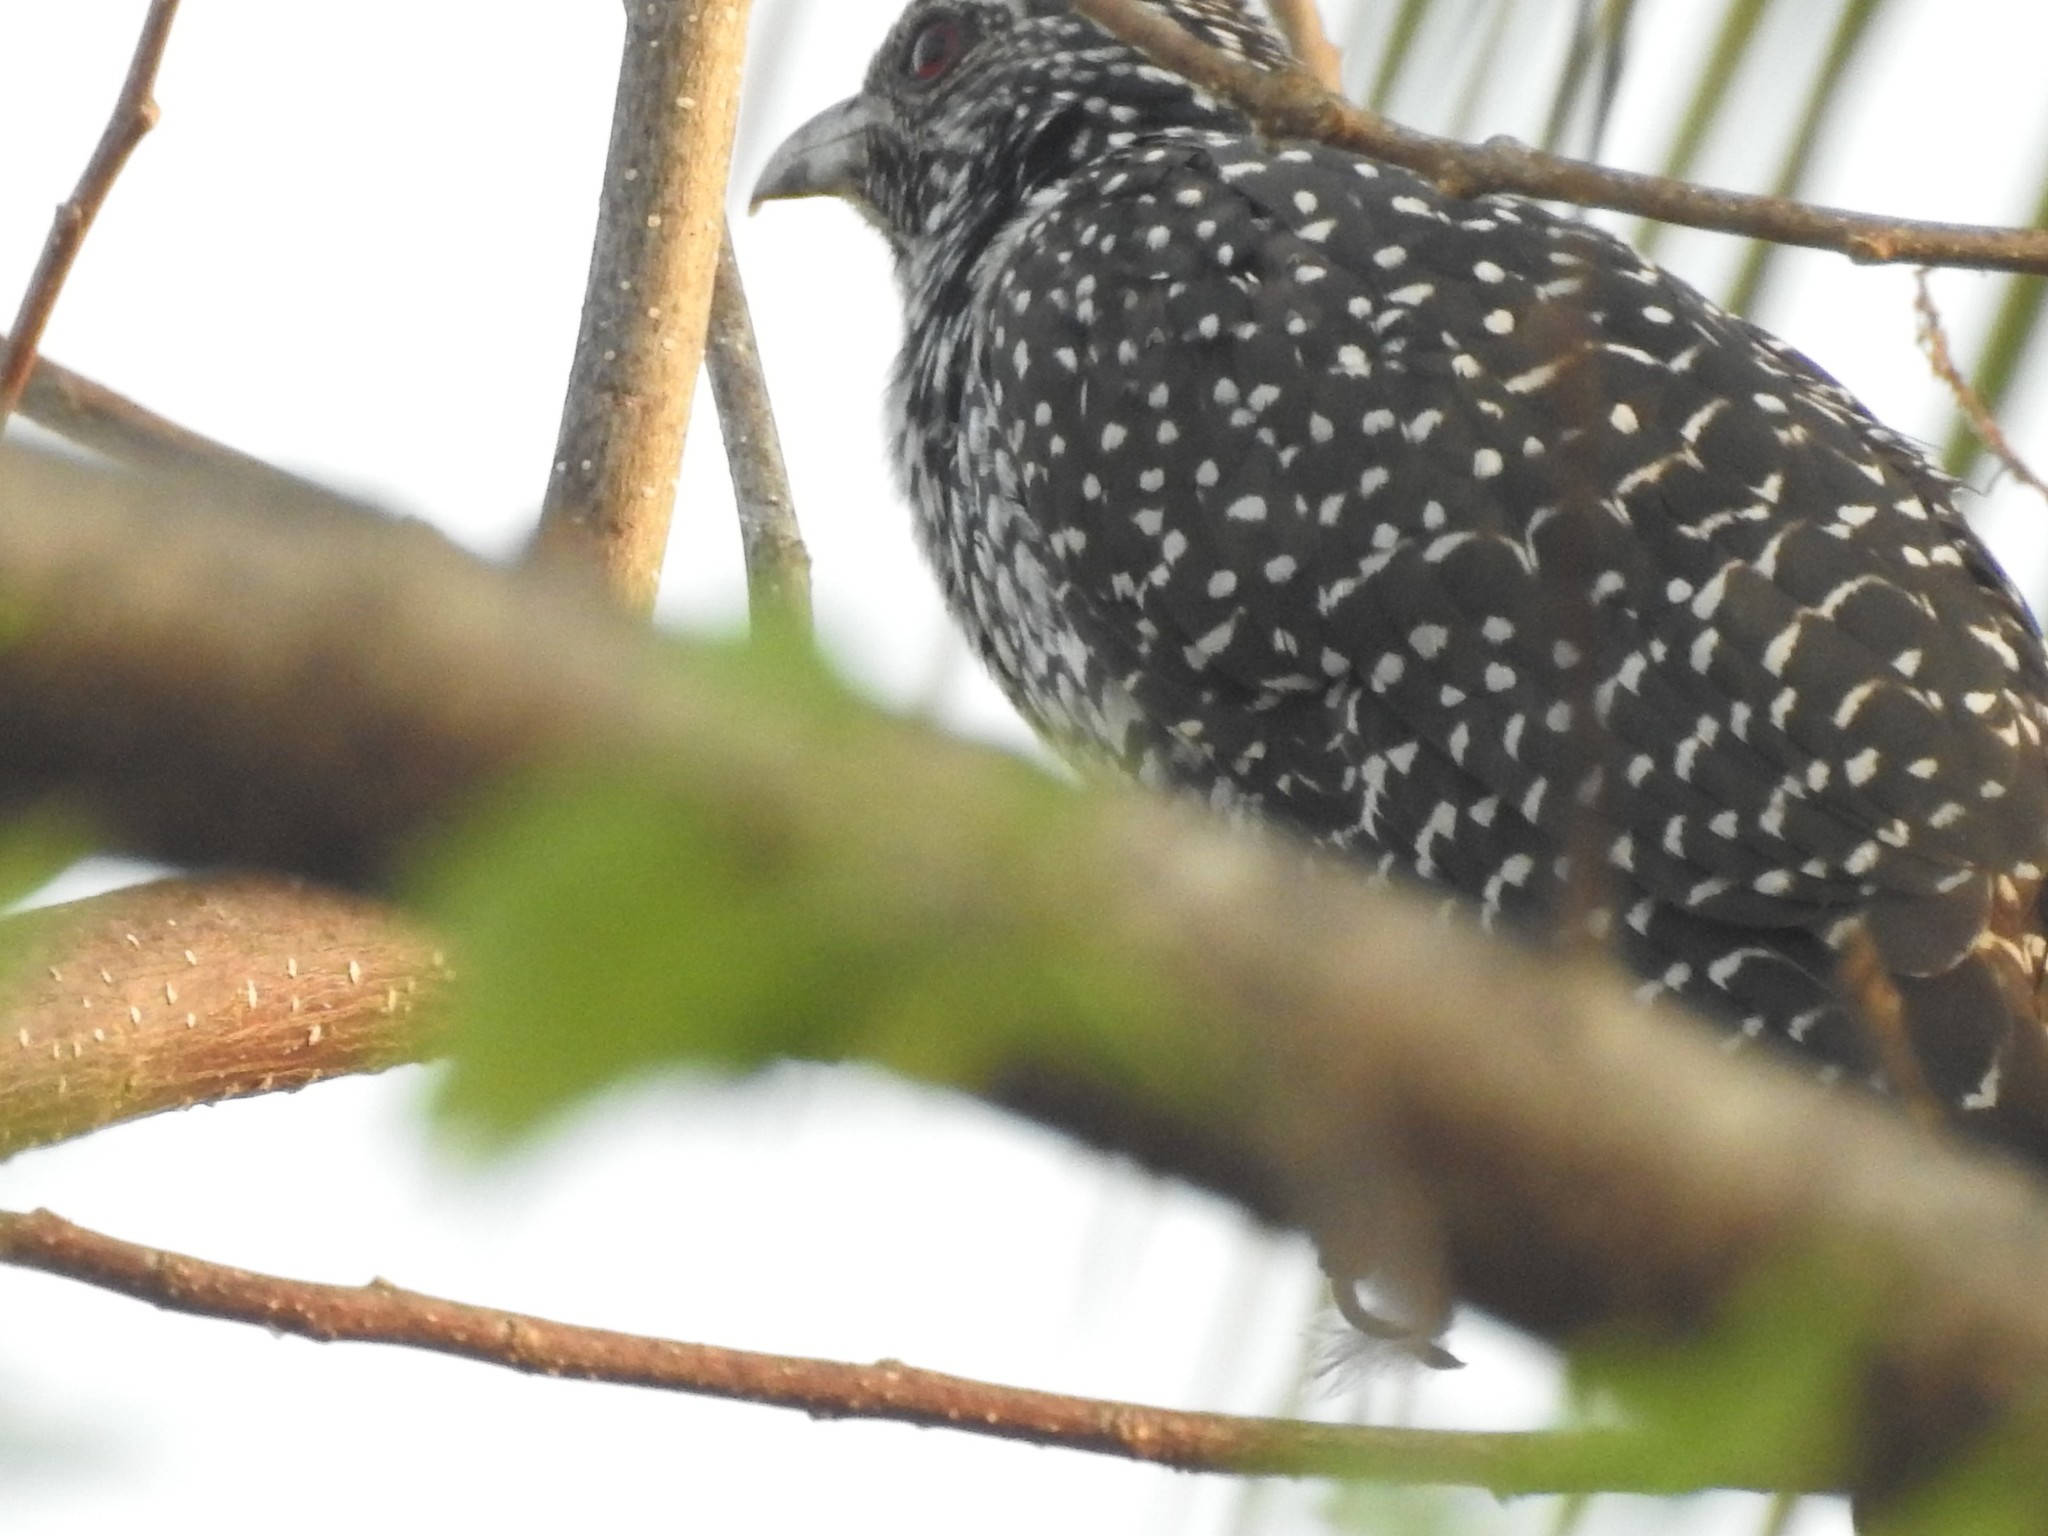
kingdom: Animalia
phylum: Chordata
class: Aves
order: Cuculiformes
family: Cuculidae
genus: Eudynamys
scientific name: Eudynamys scolopaceus
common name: Asian koel
